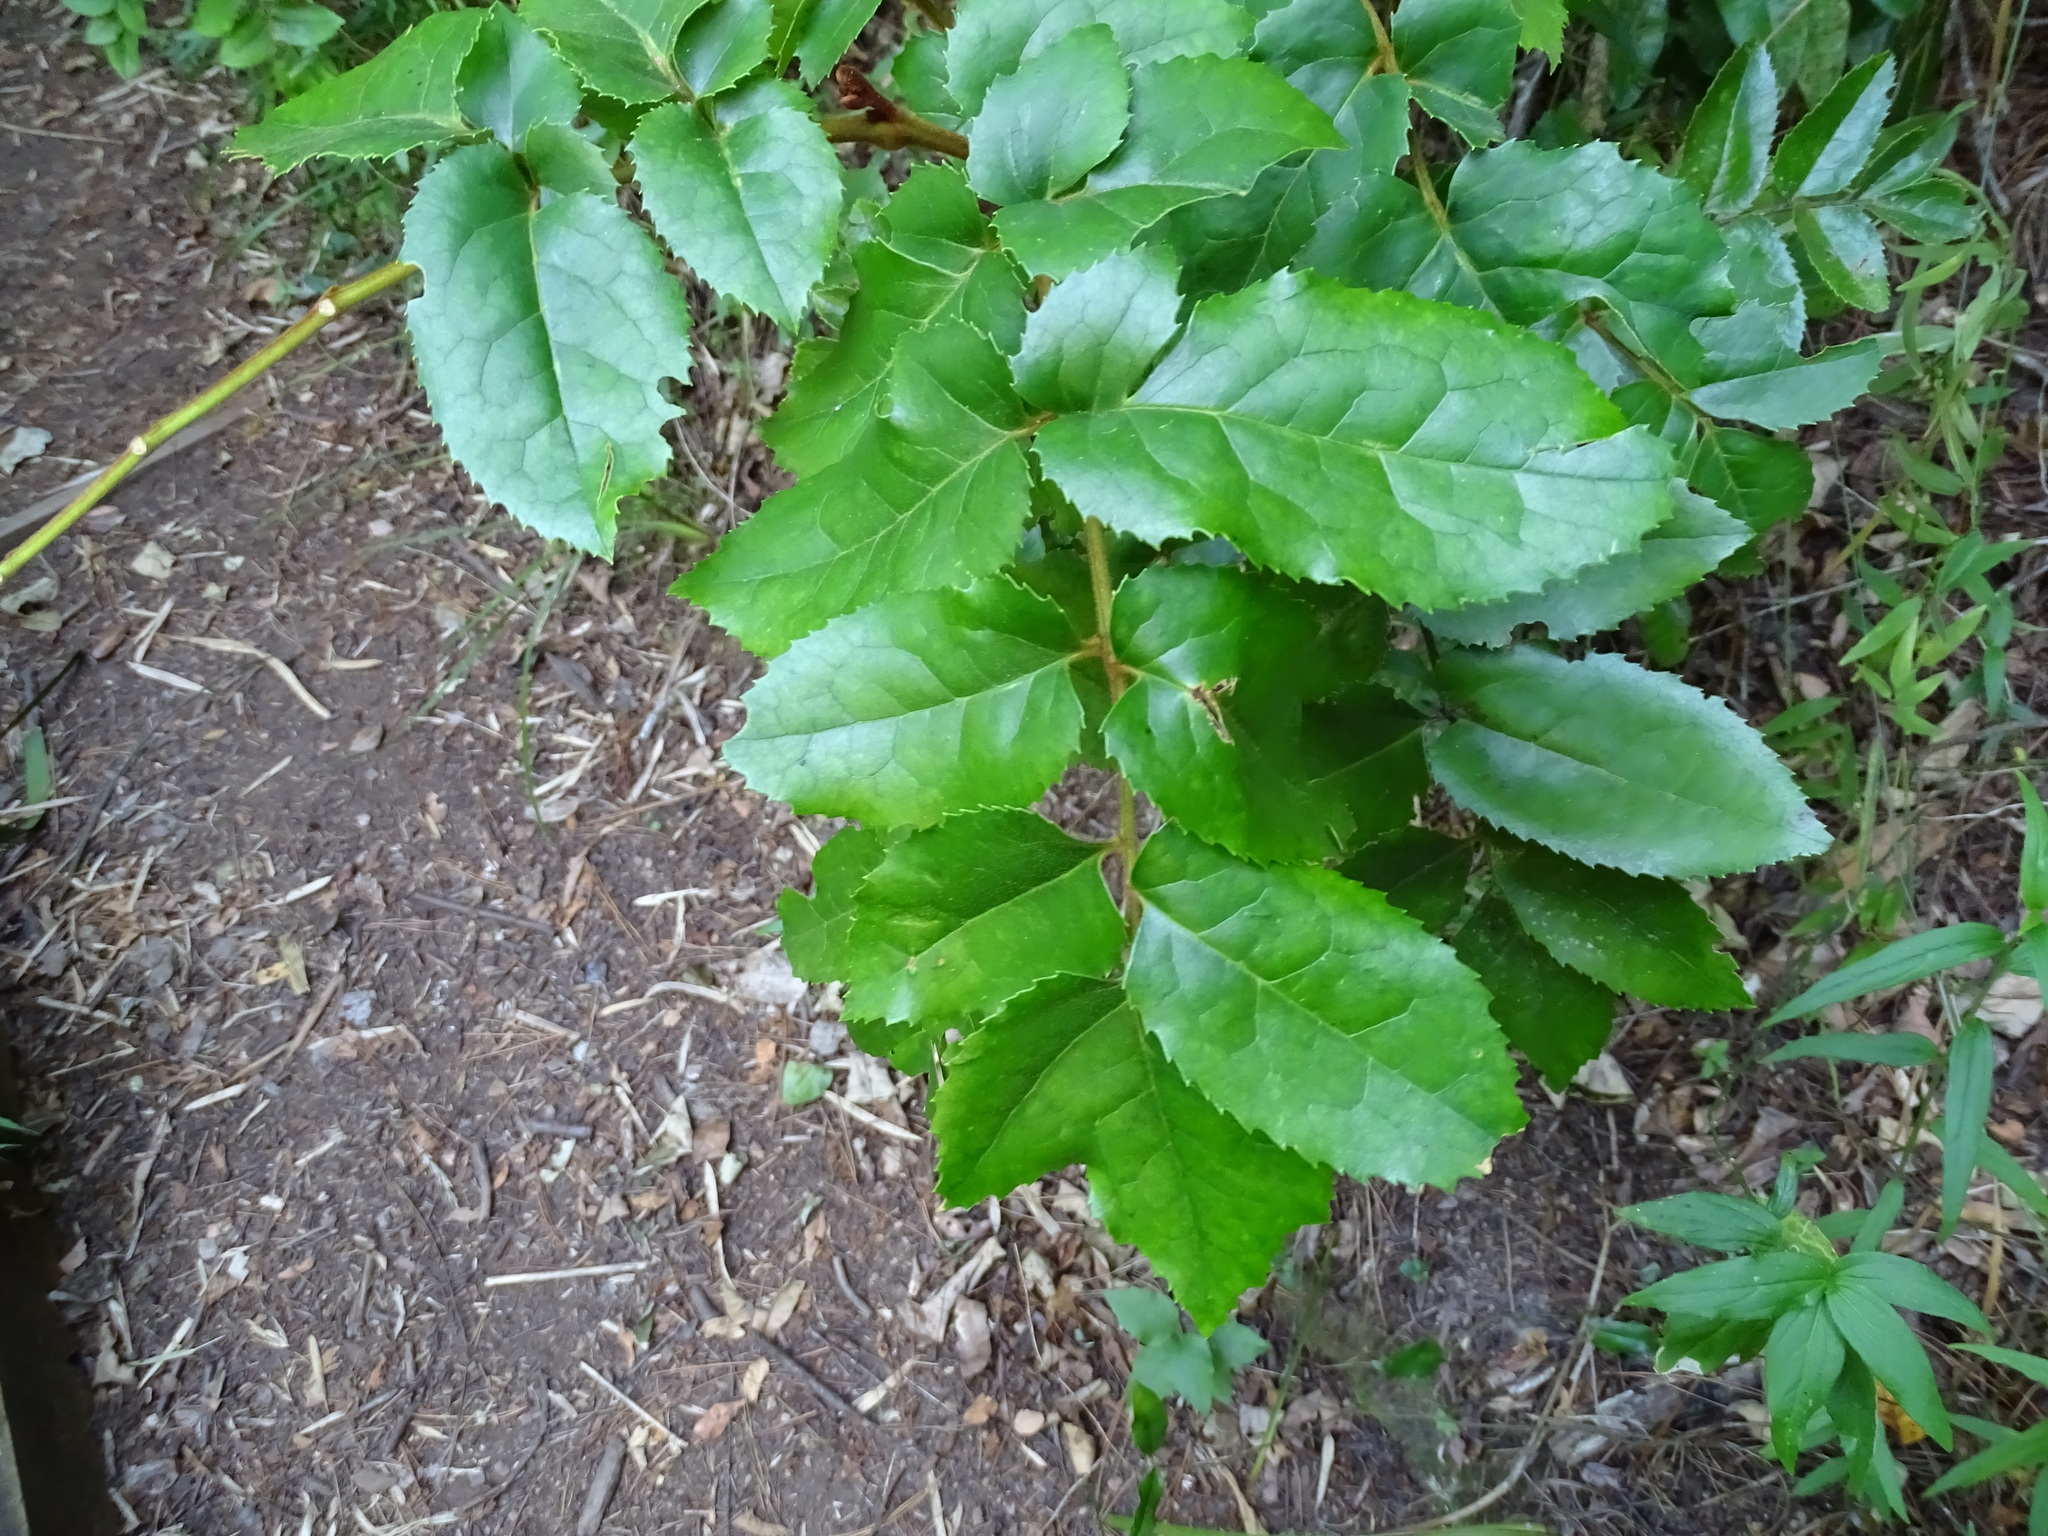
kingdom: Plantae
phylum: Tracheophyta
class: Magnoliopsida
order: Proteales
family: Proteaceae
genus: Gevuina
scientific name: Gevuina avellana
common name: Chilean hazel
